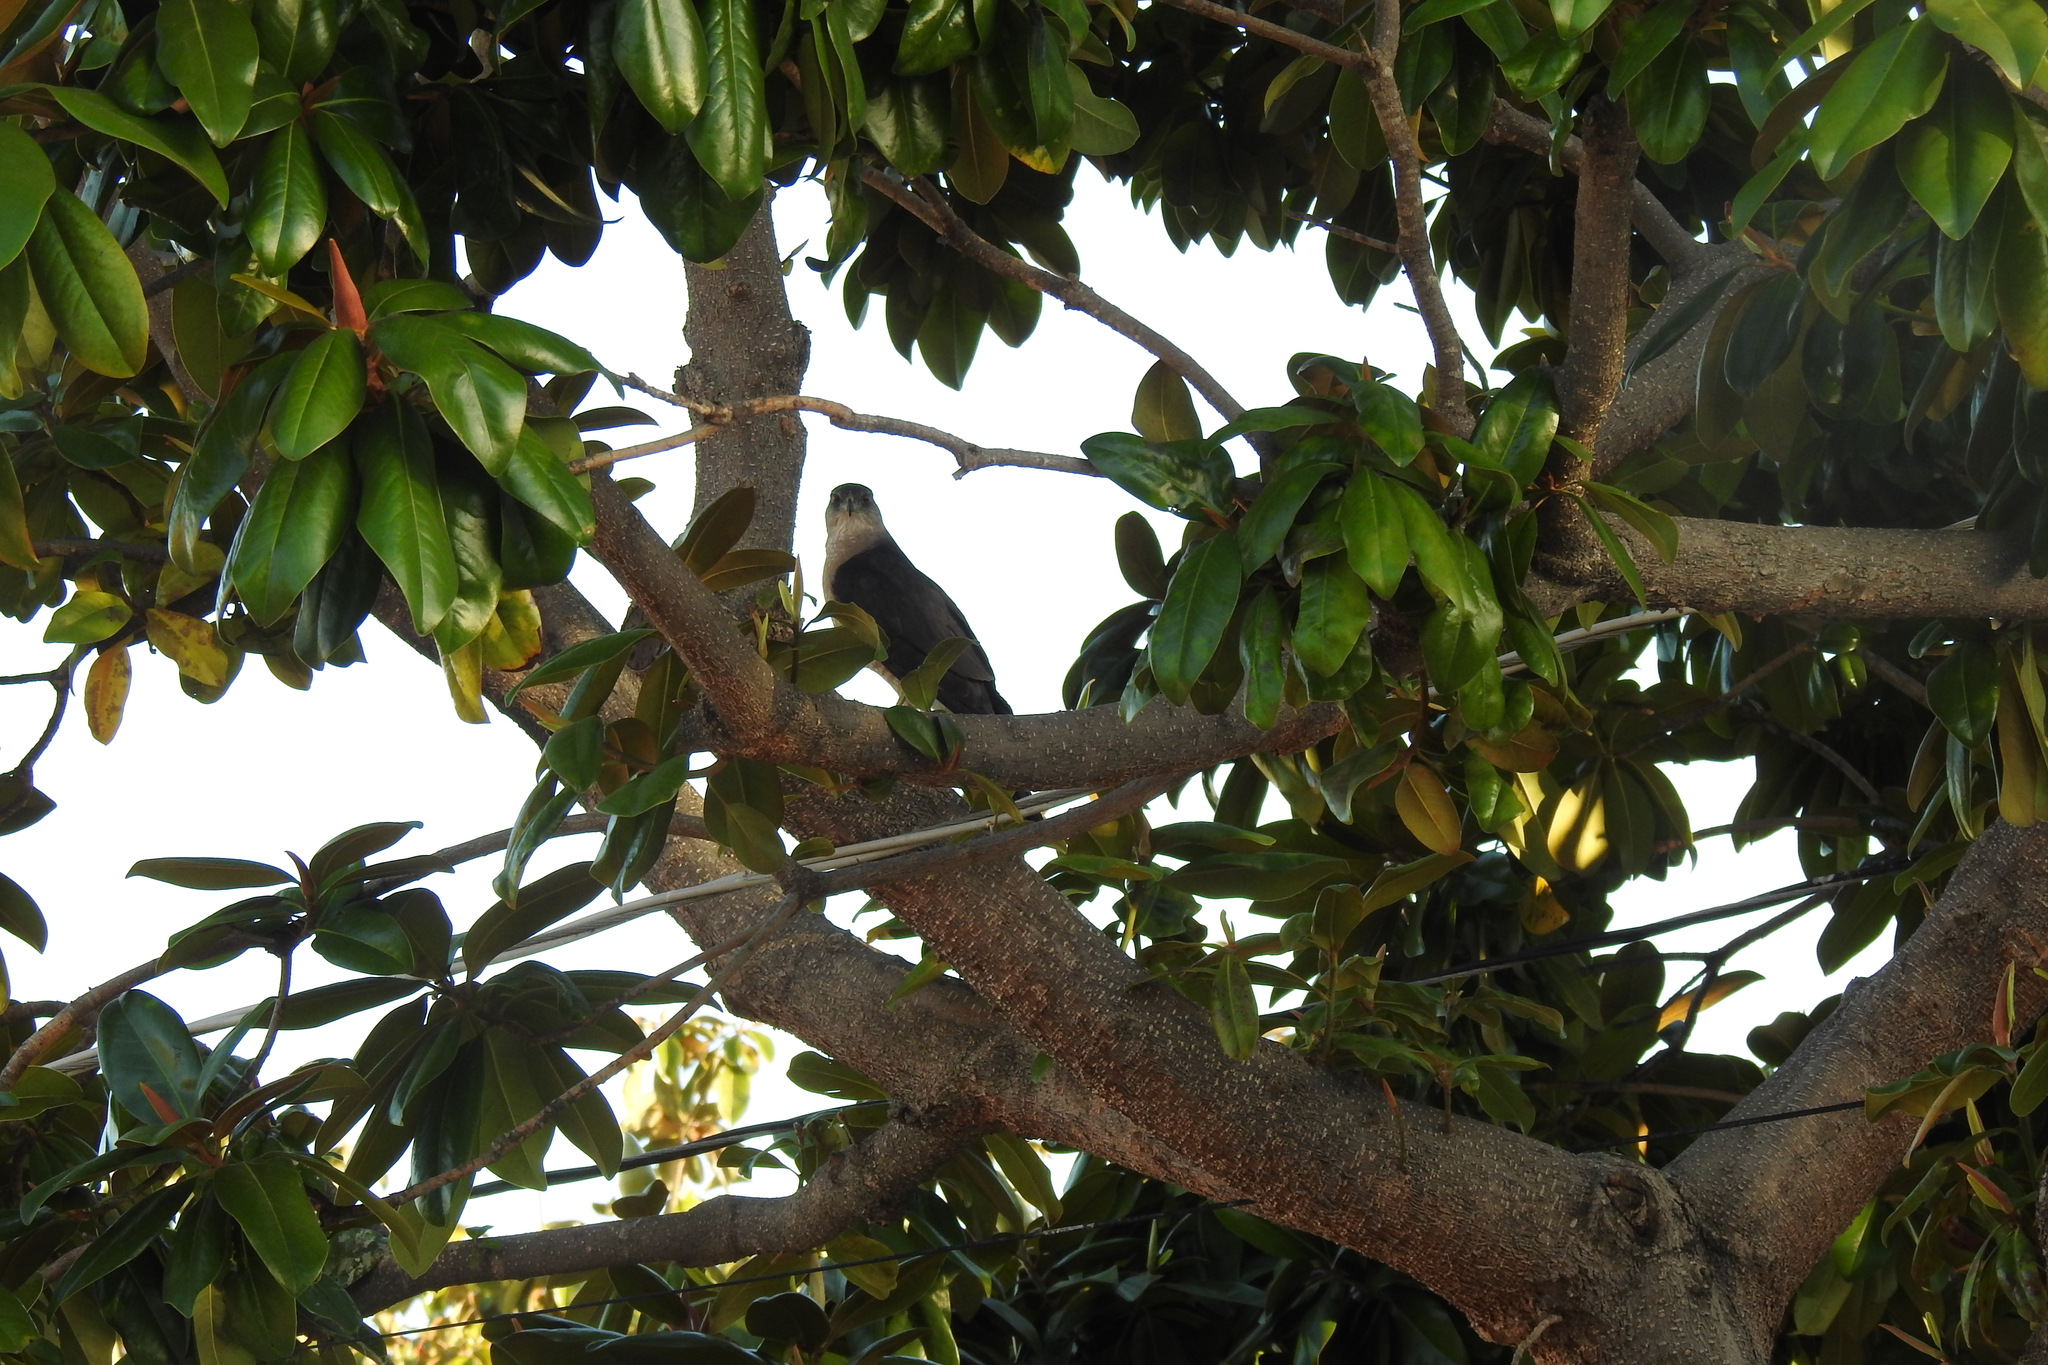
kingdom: Animalia
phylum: Chordata
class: Aves
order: Accipitriformes
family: Accipitridae
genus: Accipiter
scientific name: Accipiter cooperii
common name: Cooper's hawk
